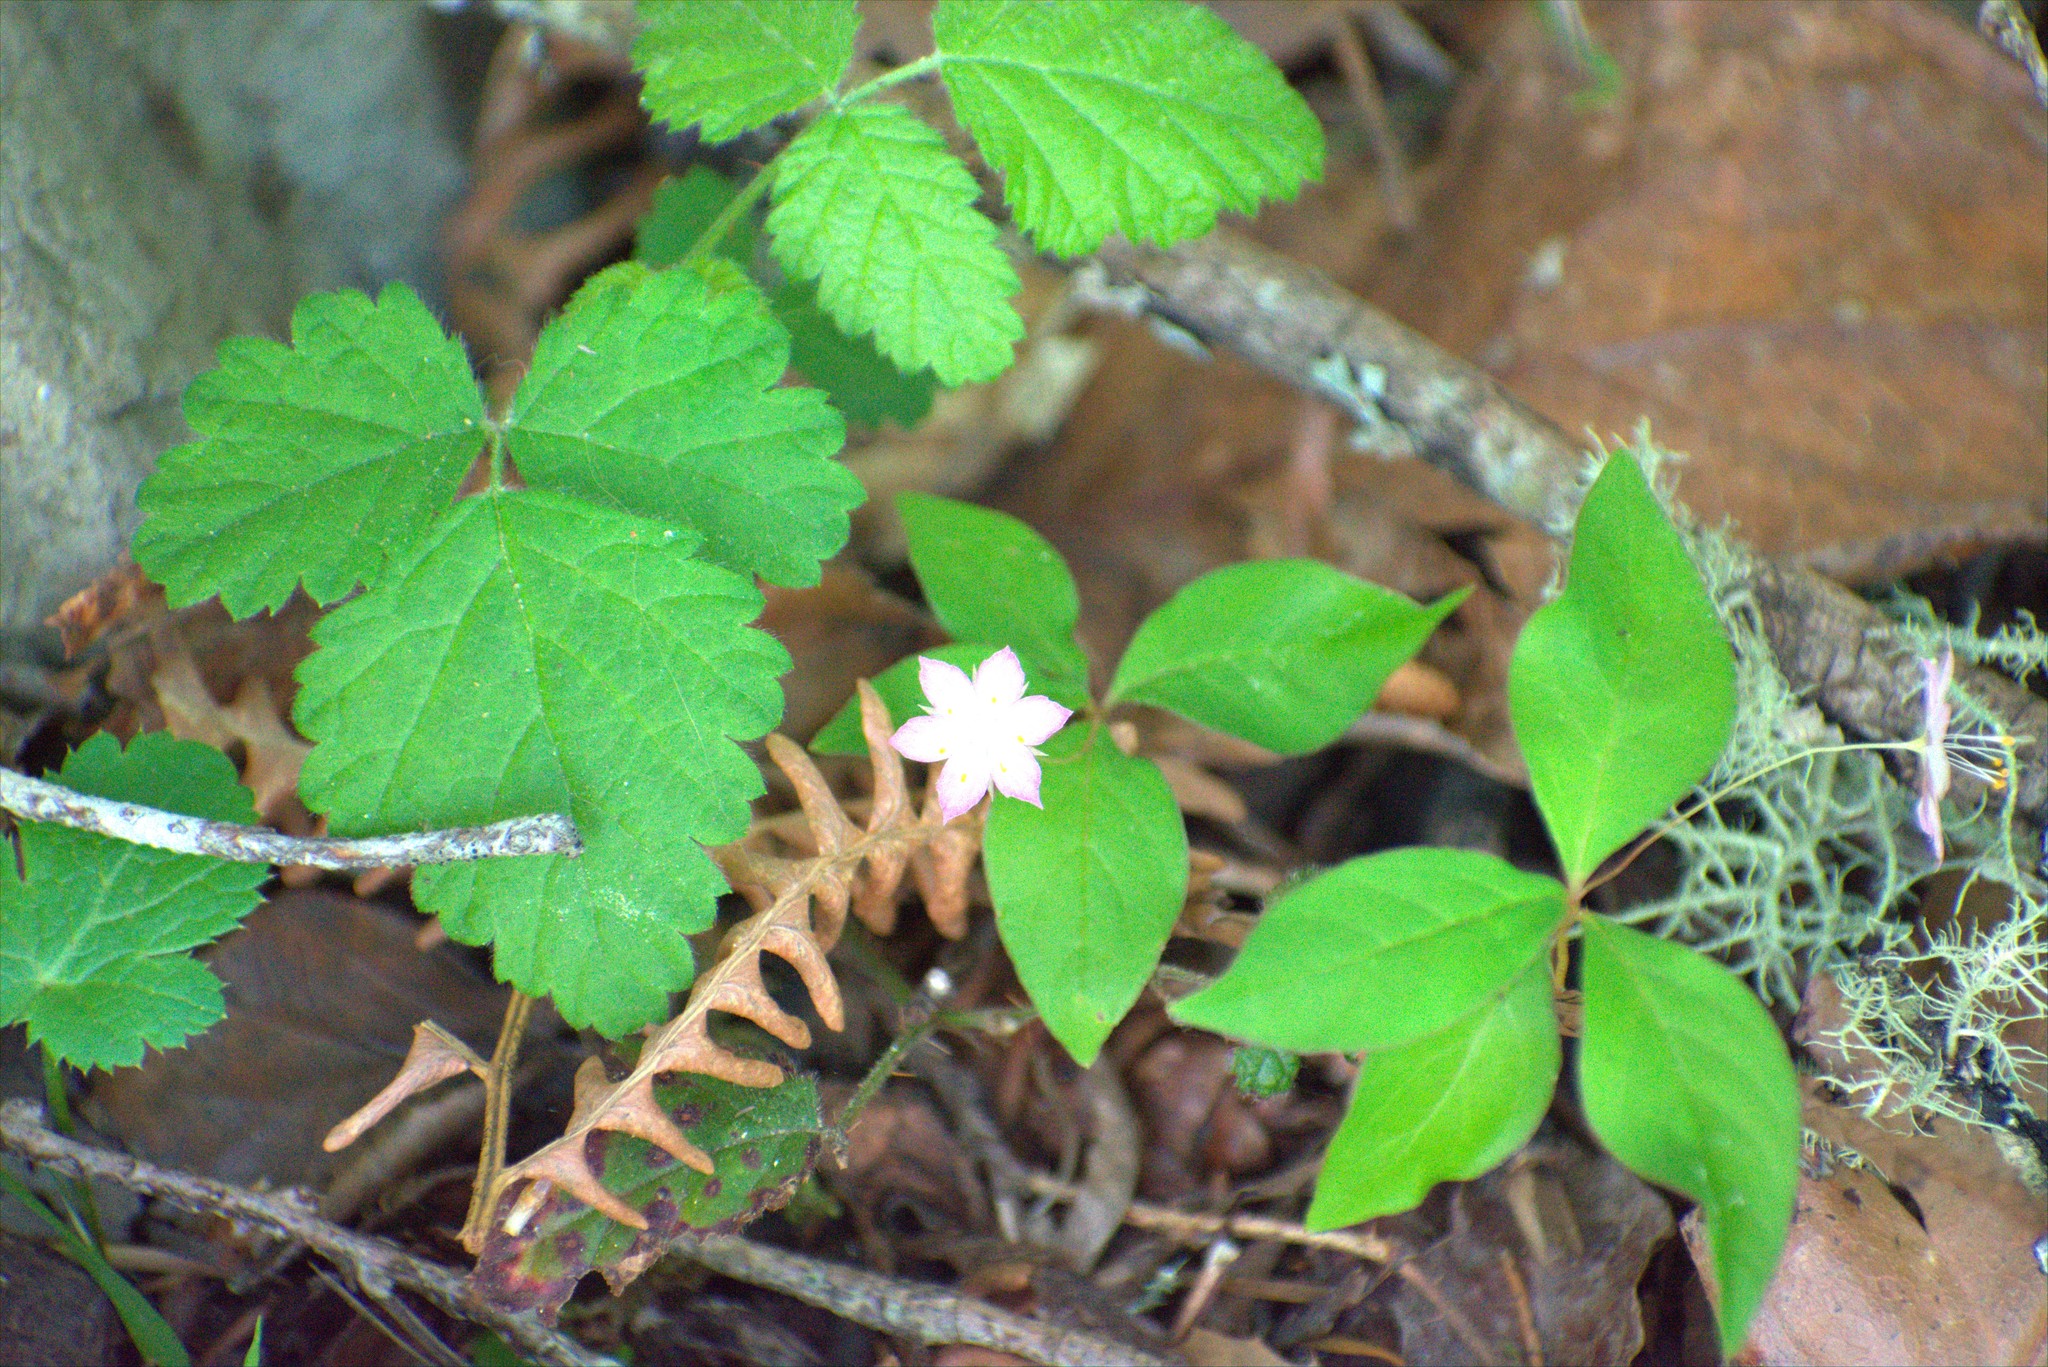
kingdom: Plantae
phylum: Tracheophyta
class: Magnoliopsida
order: Ericales
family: Primulaceae
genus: Lysimachia
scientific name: Lysimachia latifolia
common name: Pacific starflower
